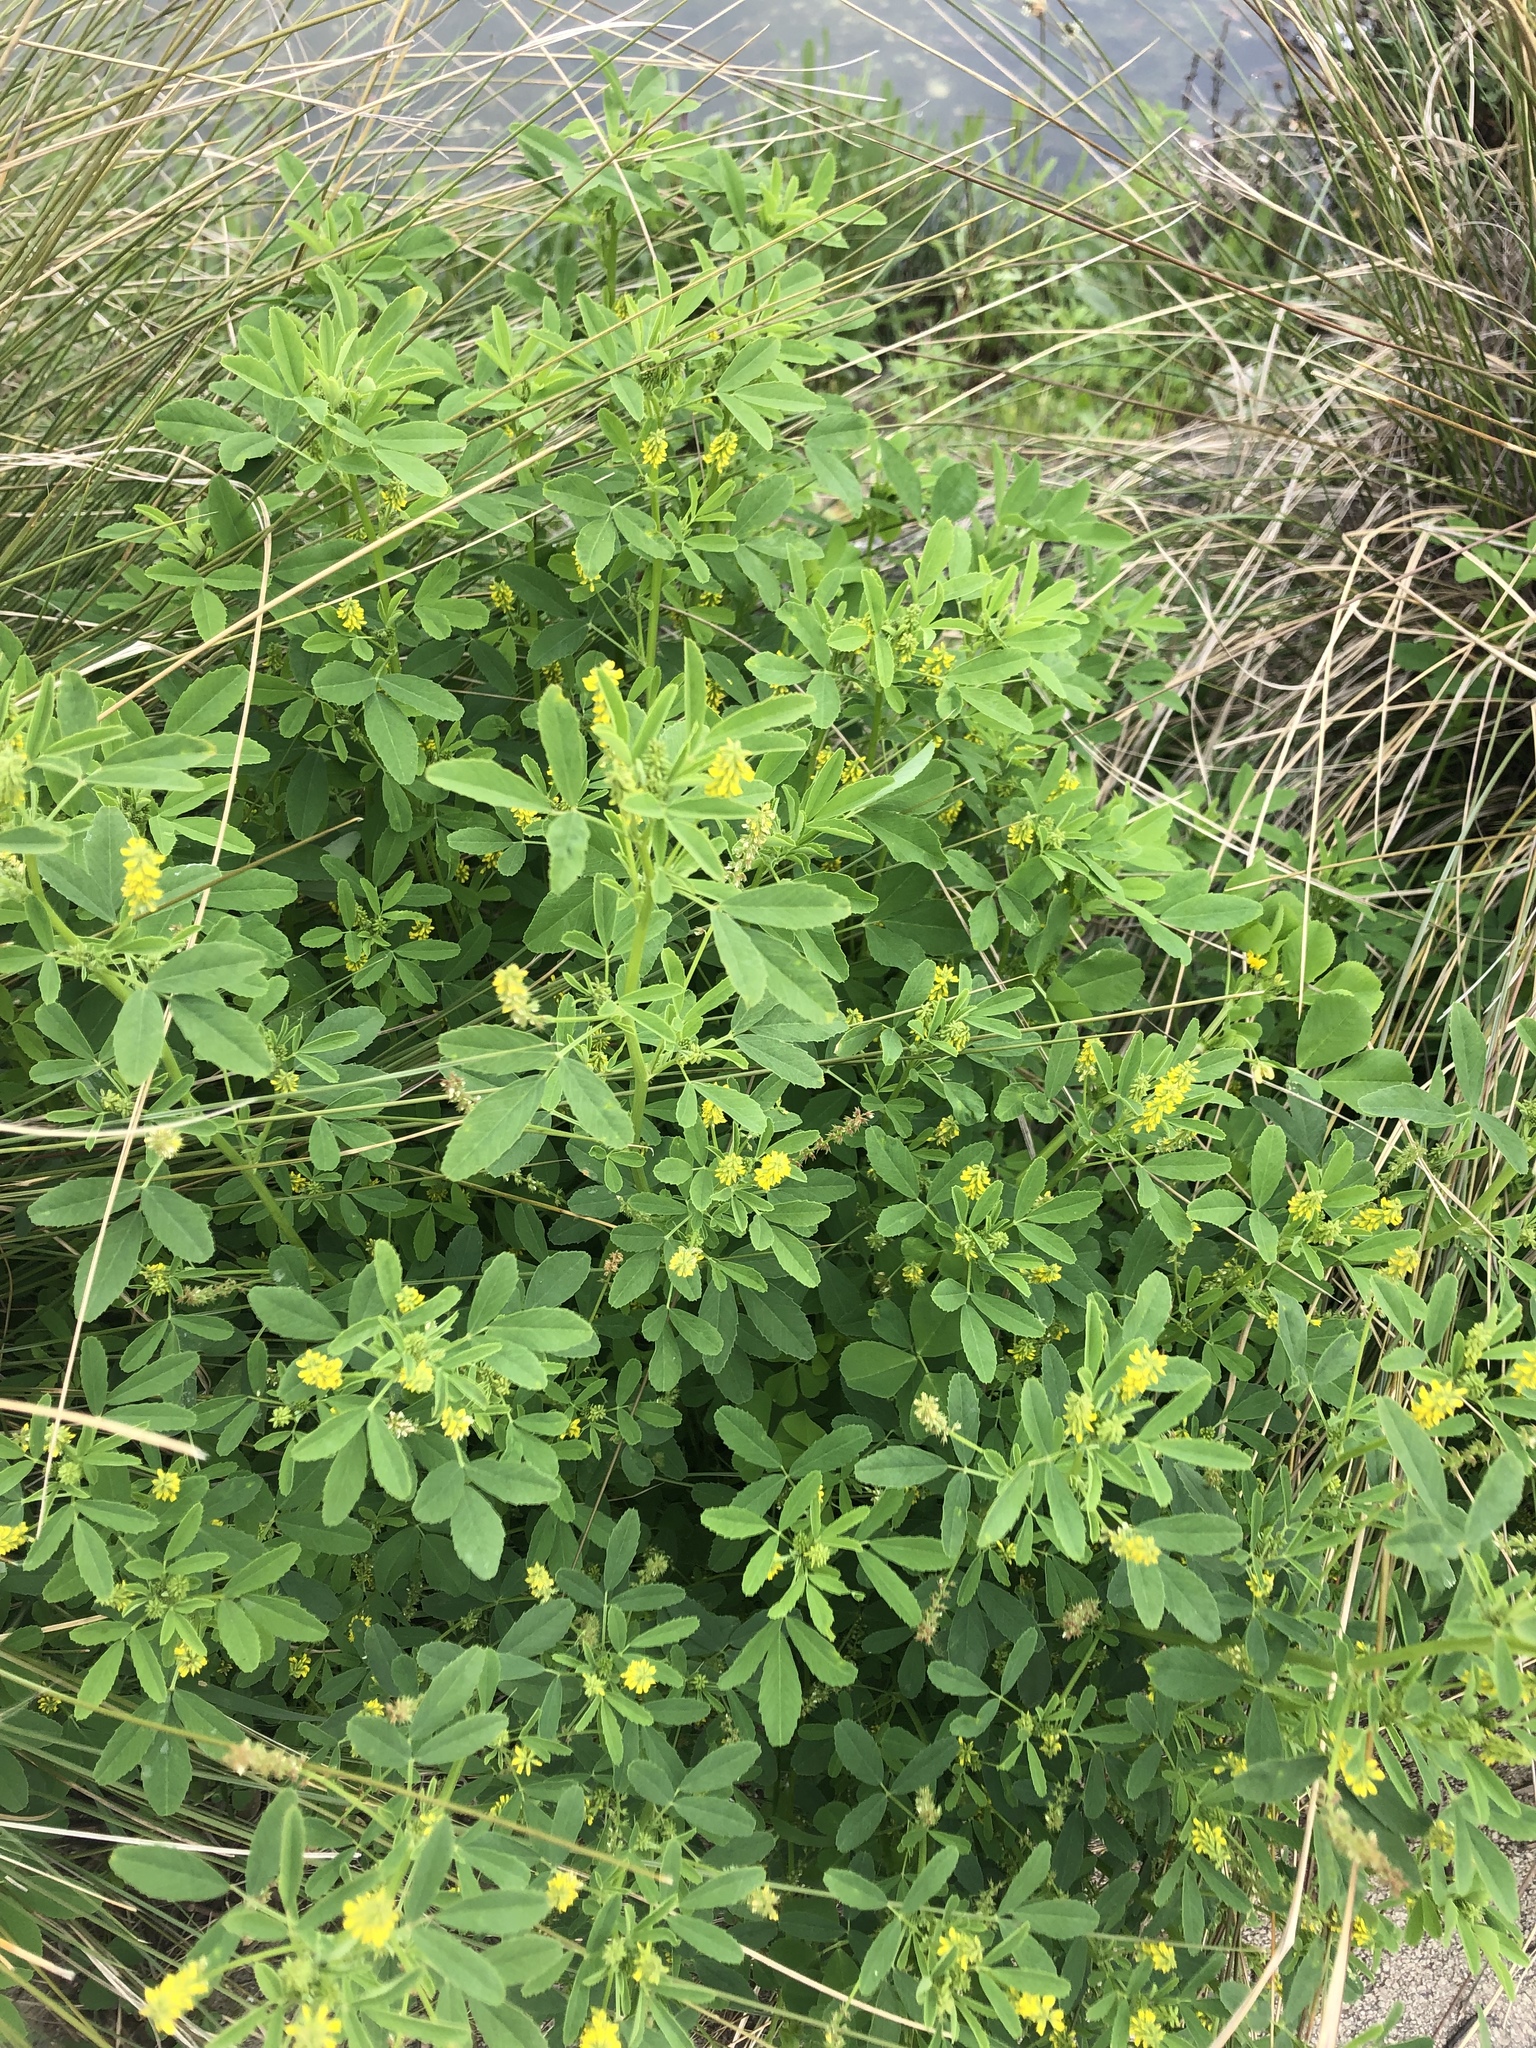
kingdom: Plantae
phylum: Tracheophyta
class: Magnoliopsida
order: Fabales
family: Fabaceae
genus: Melilotus
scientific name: Melilotus indicus
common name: Small melilot
